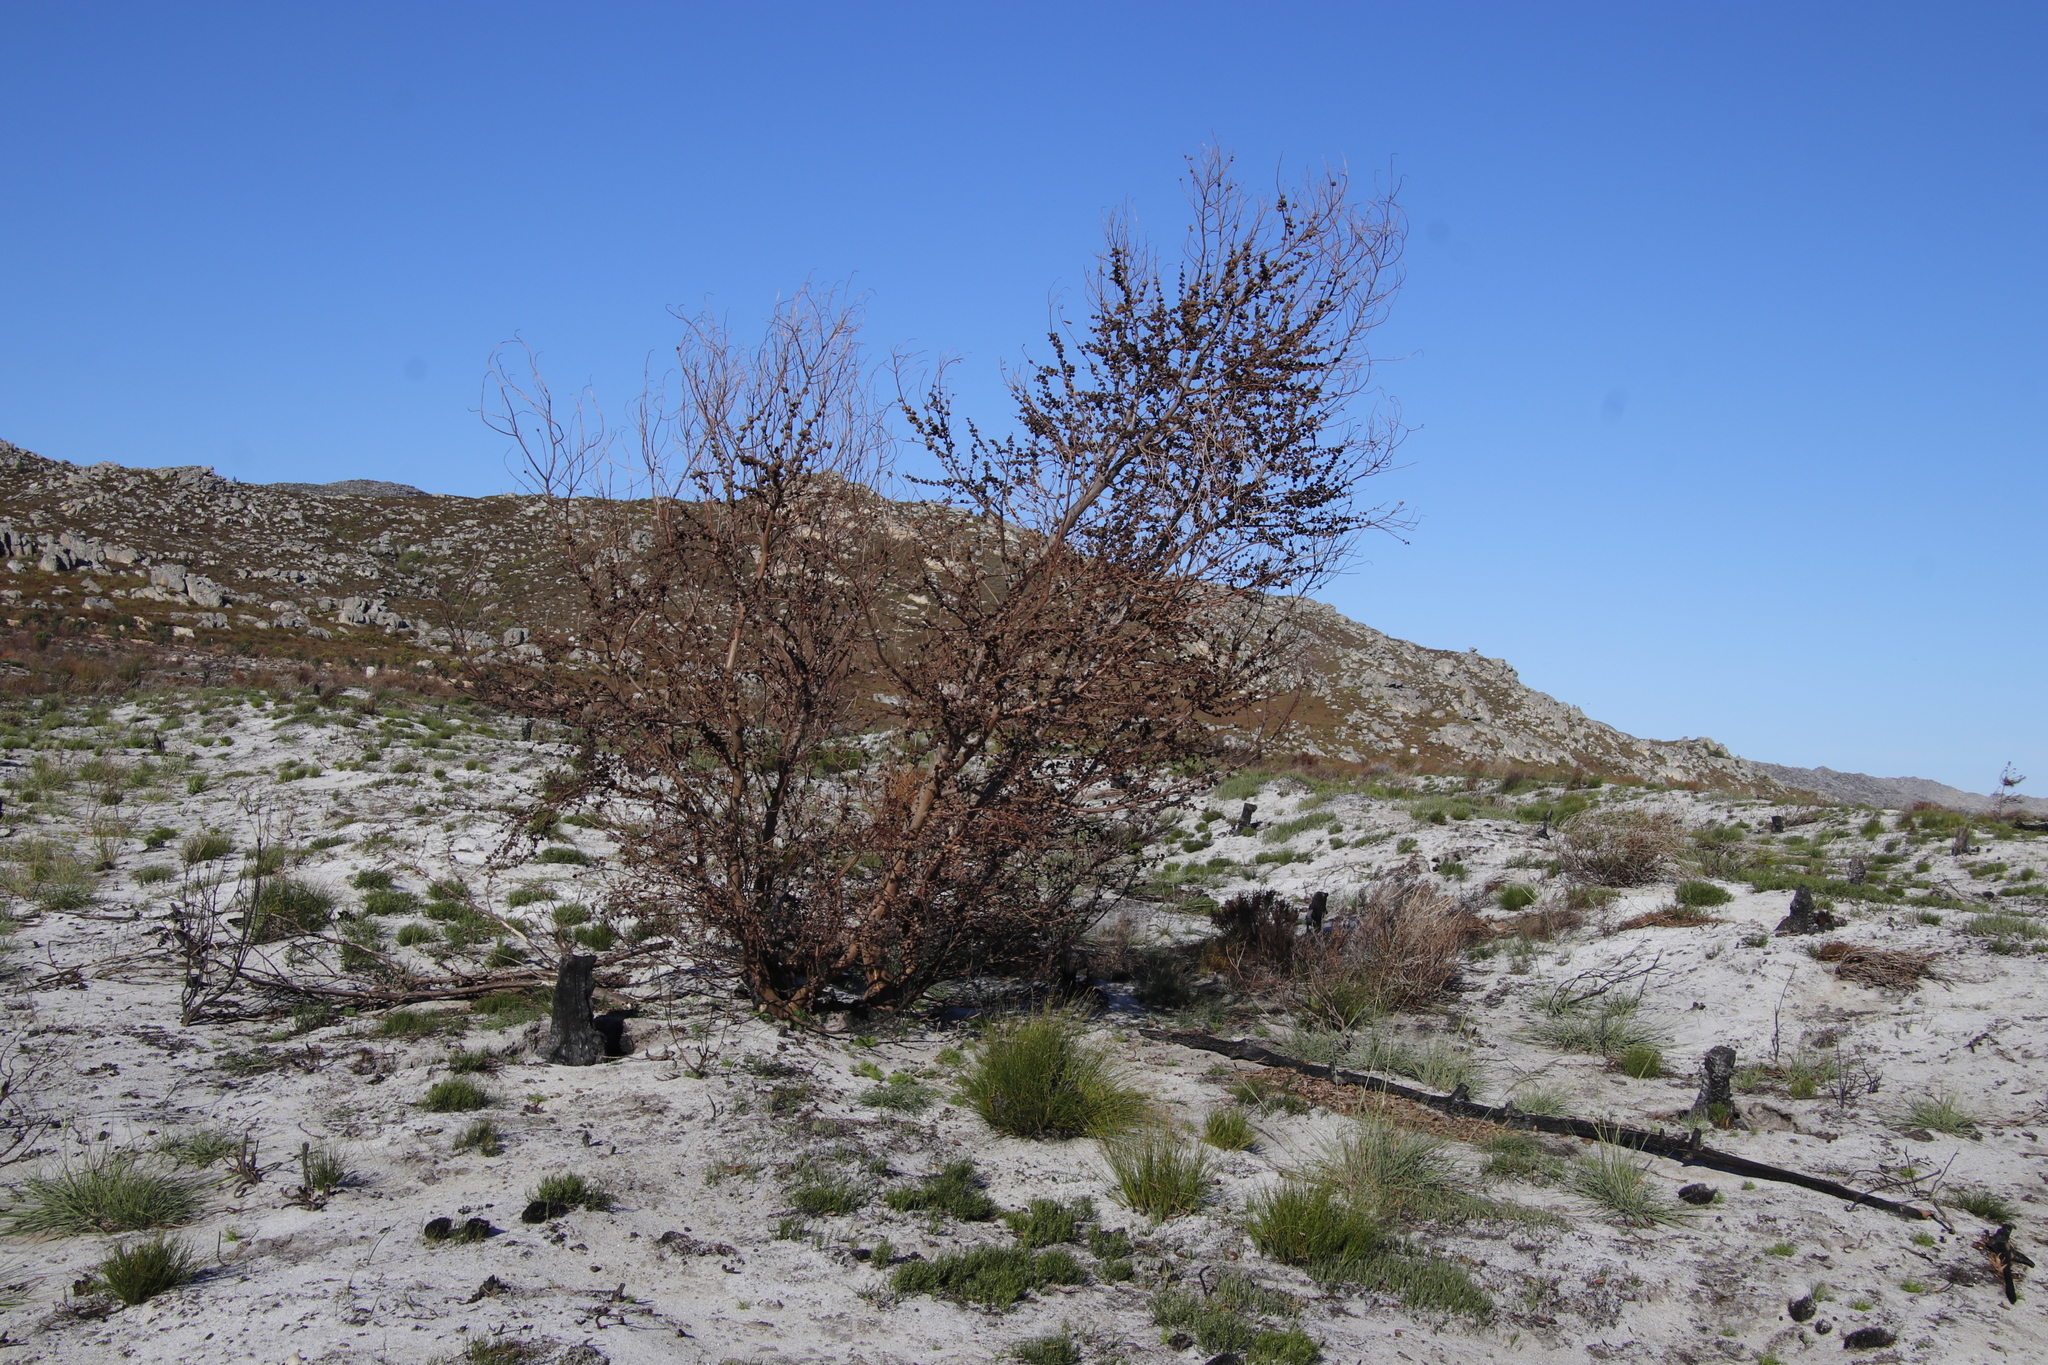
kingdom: Plantae
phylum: Tracheophyta
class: Magnoliopsida
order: Fabales
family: Fabaceae
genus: Acacia
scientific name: Acacia longifolia
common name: Sydney golden wattle
